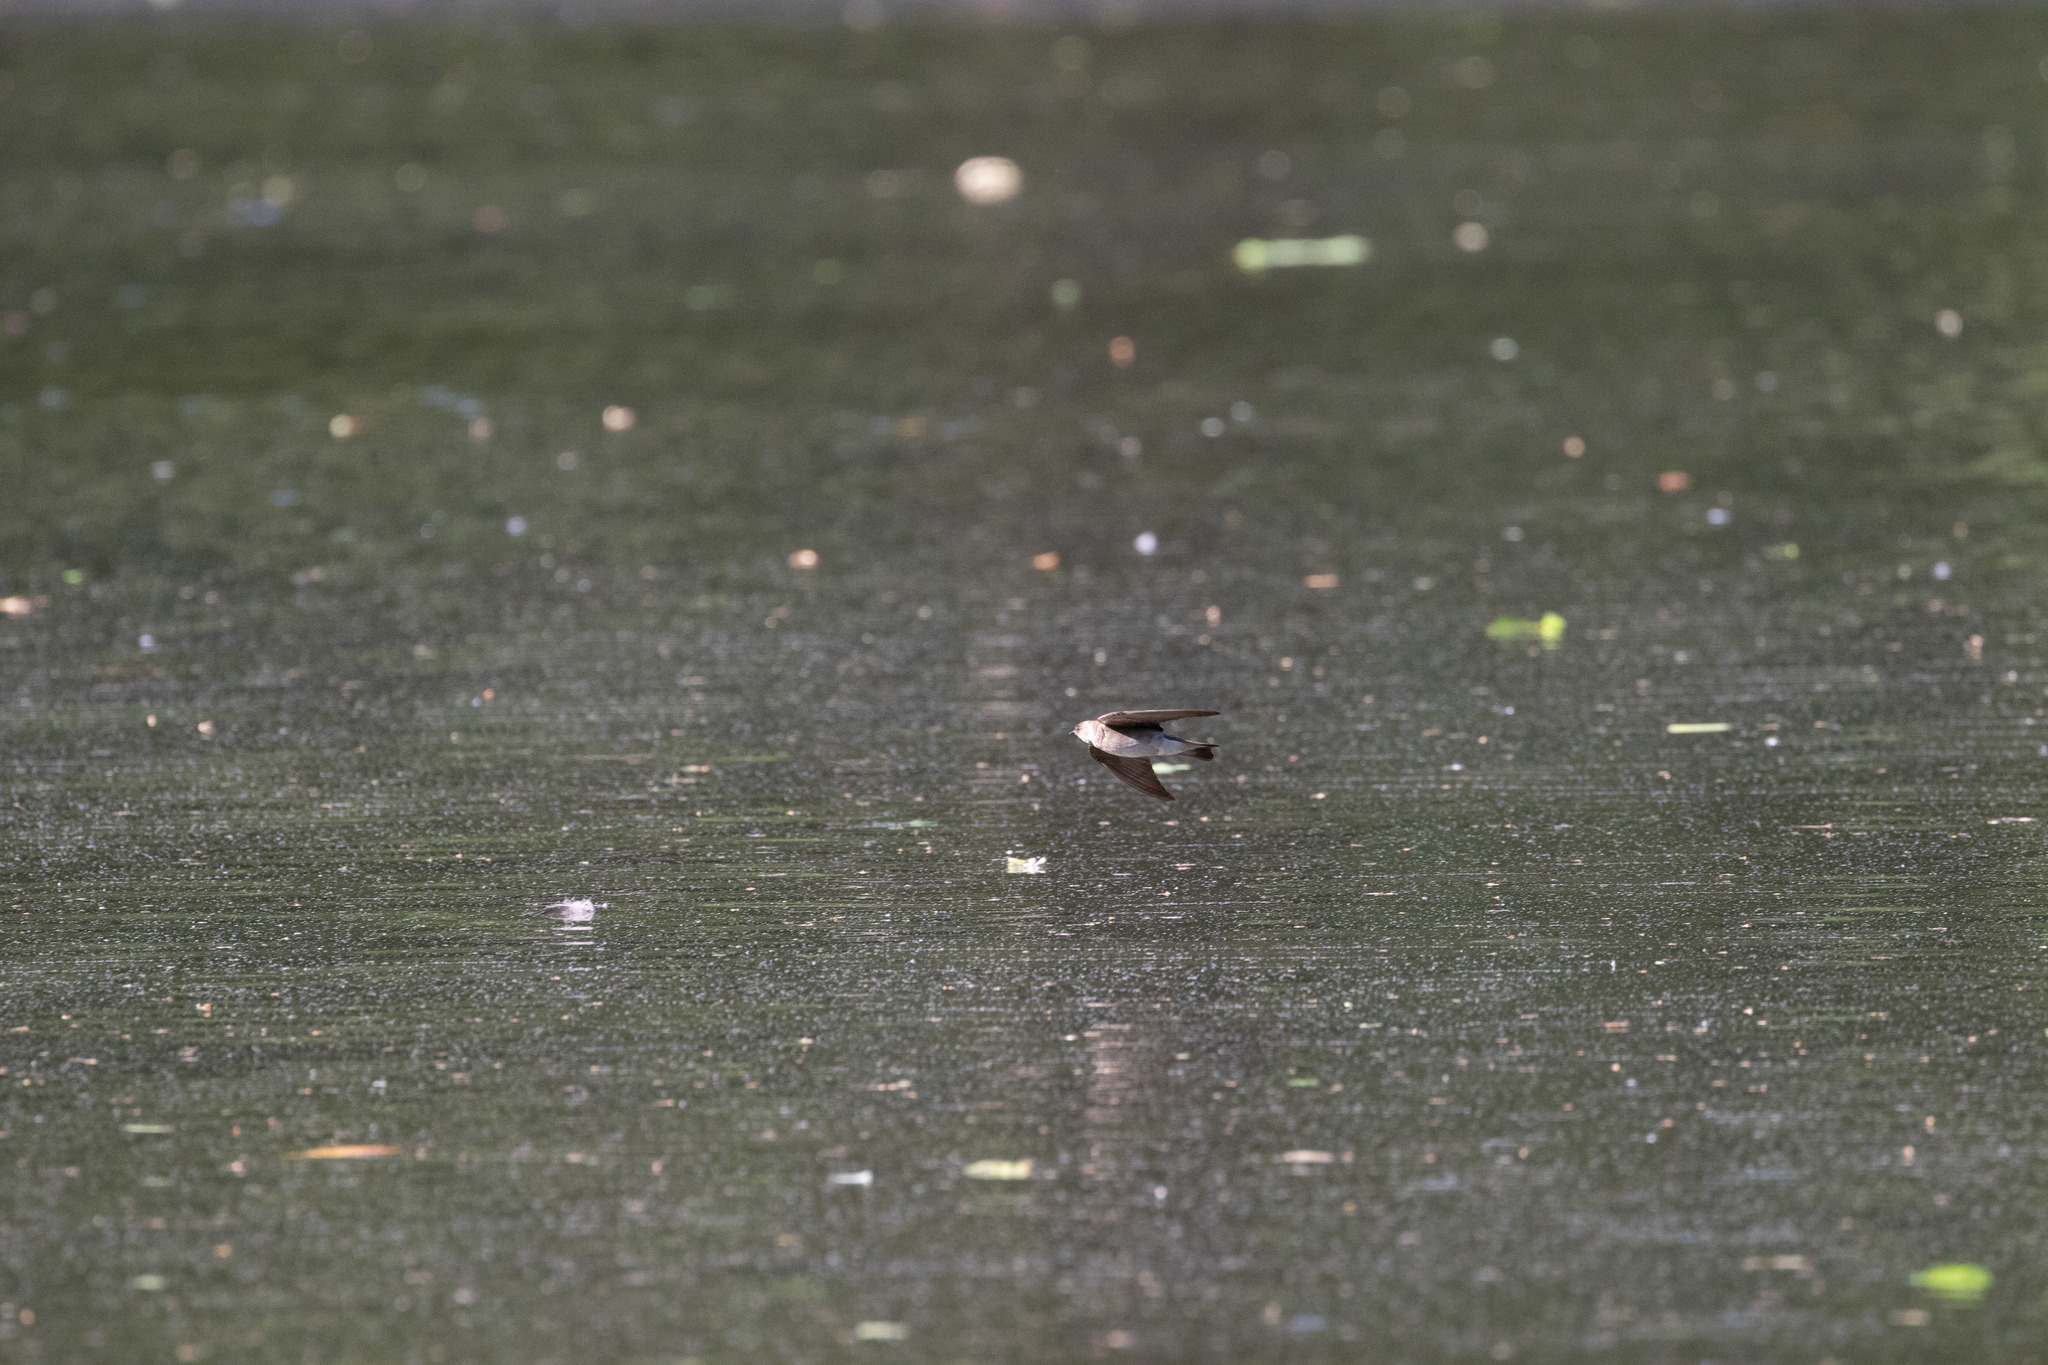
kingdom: Animalia
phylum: Chordata
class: Aves
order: Passeriformes
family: Hirundinidae
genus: Stelgidopteryx
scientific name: Stelgidopteryx serripennis
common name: Northern rough-winged swallow
